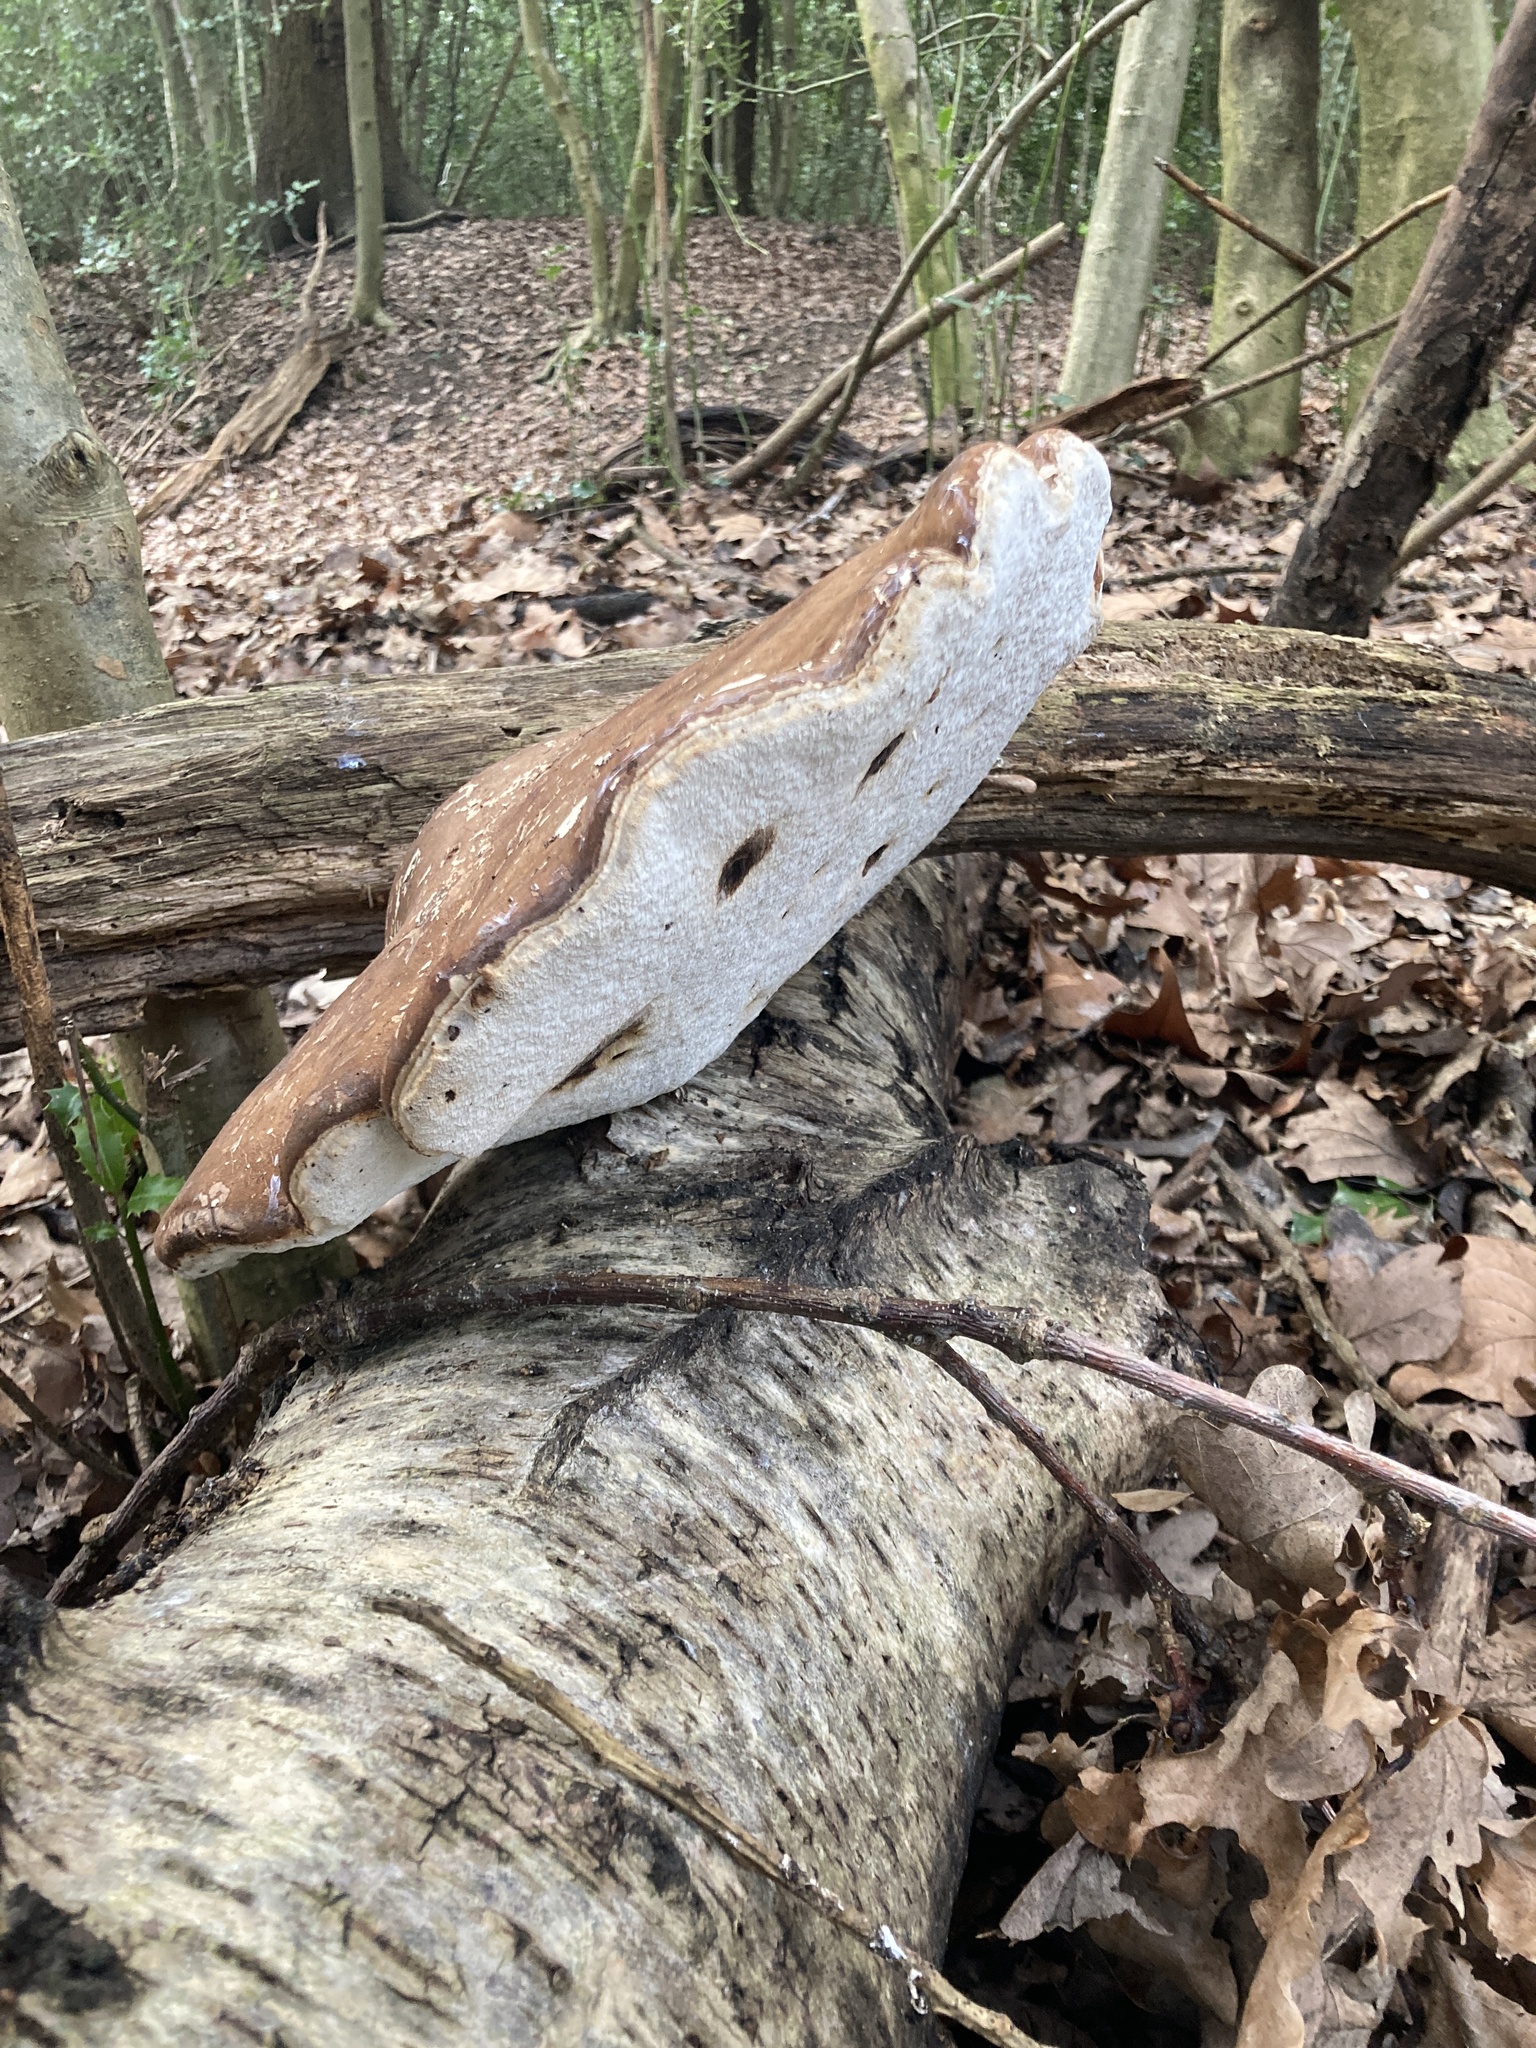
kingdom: Fungi
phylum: Basidiomycota
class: Agaricomycetes
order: Polyporales
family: Fomitopsidaceae
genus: Fomitopsis
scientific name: Fomitopsis betulina
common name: Birch polypore
